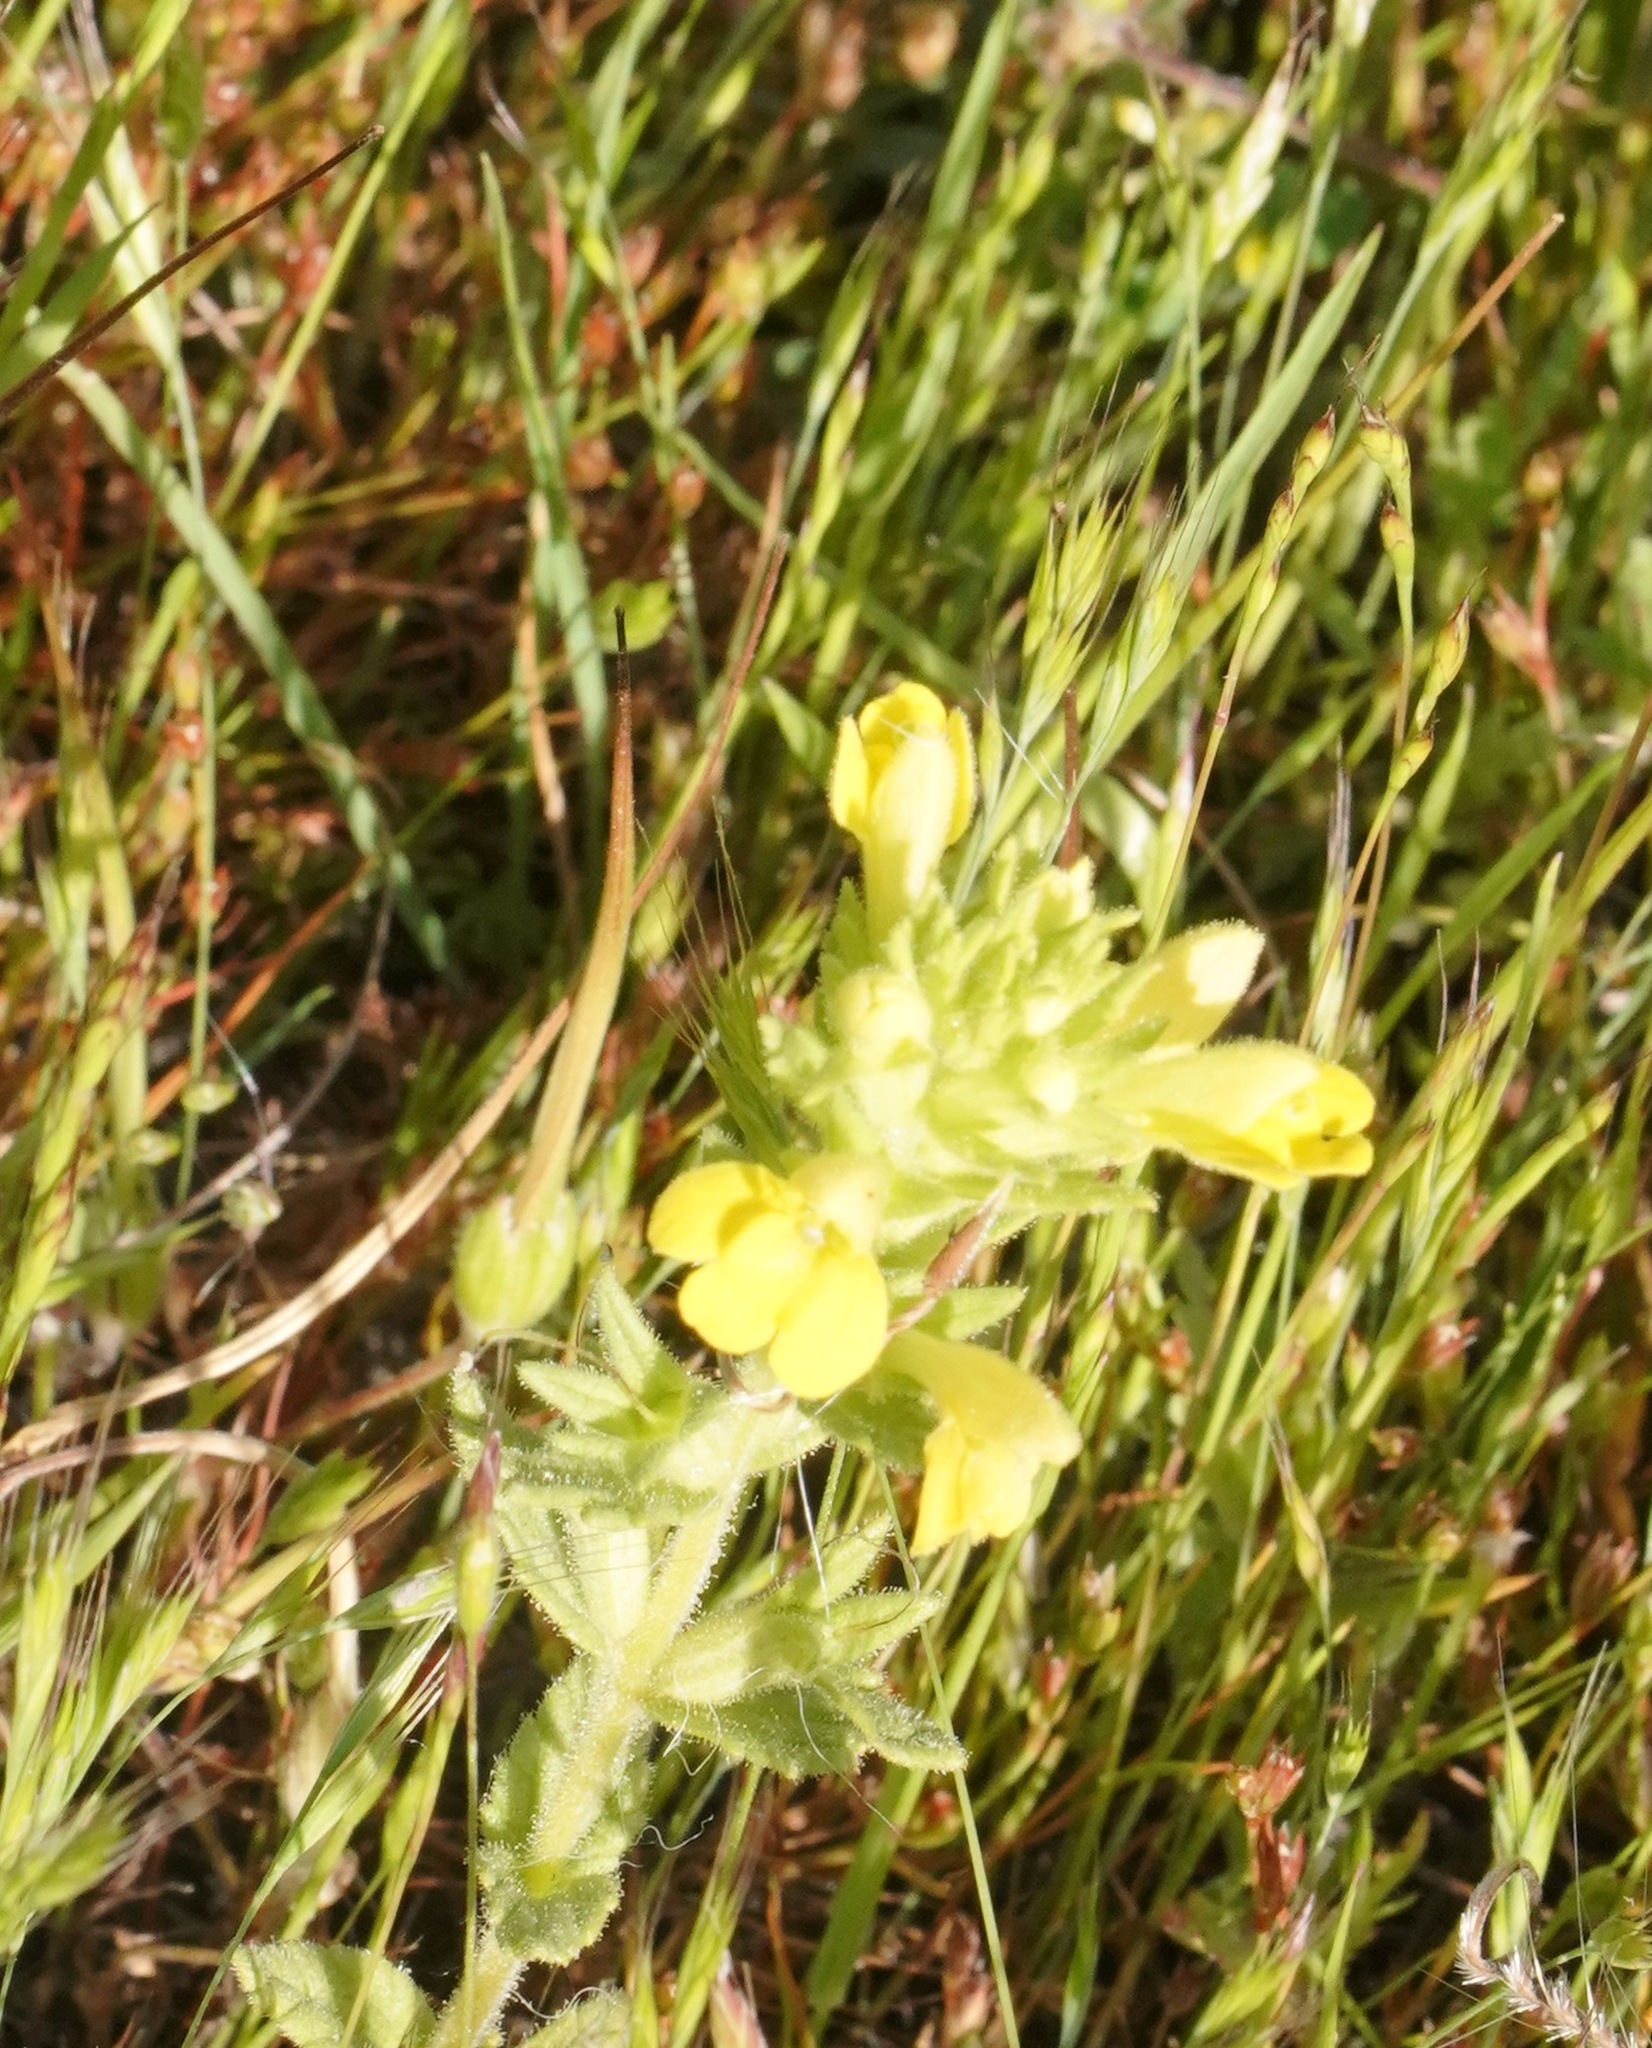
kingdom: Plantae
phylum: Tracheophyta
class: Magnoliopsida
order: Lamiales
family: Orobanchaceae
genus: Bellardia
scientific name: Bellardia viscosa
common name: Sticky parentucellia
